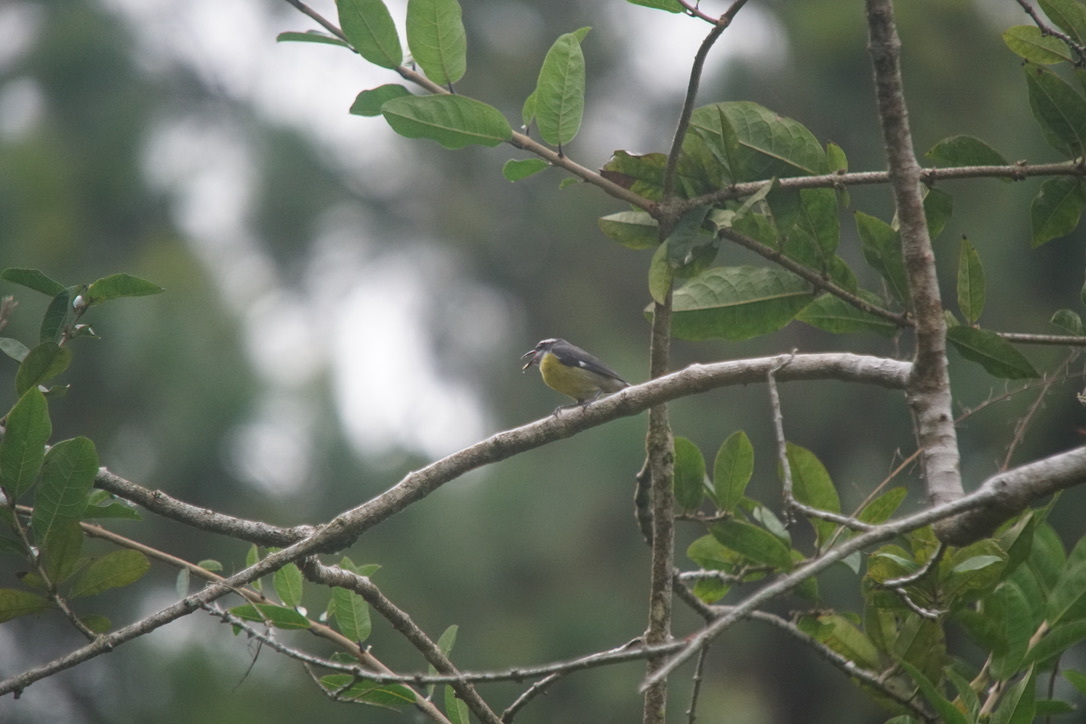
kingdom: Animalia
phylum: Chordata
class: Aves
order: Passeriformes
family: Thraupidae
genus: Coereba
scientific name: Coereba flaveola
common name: Bananaquit
